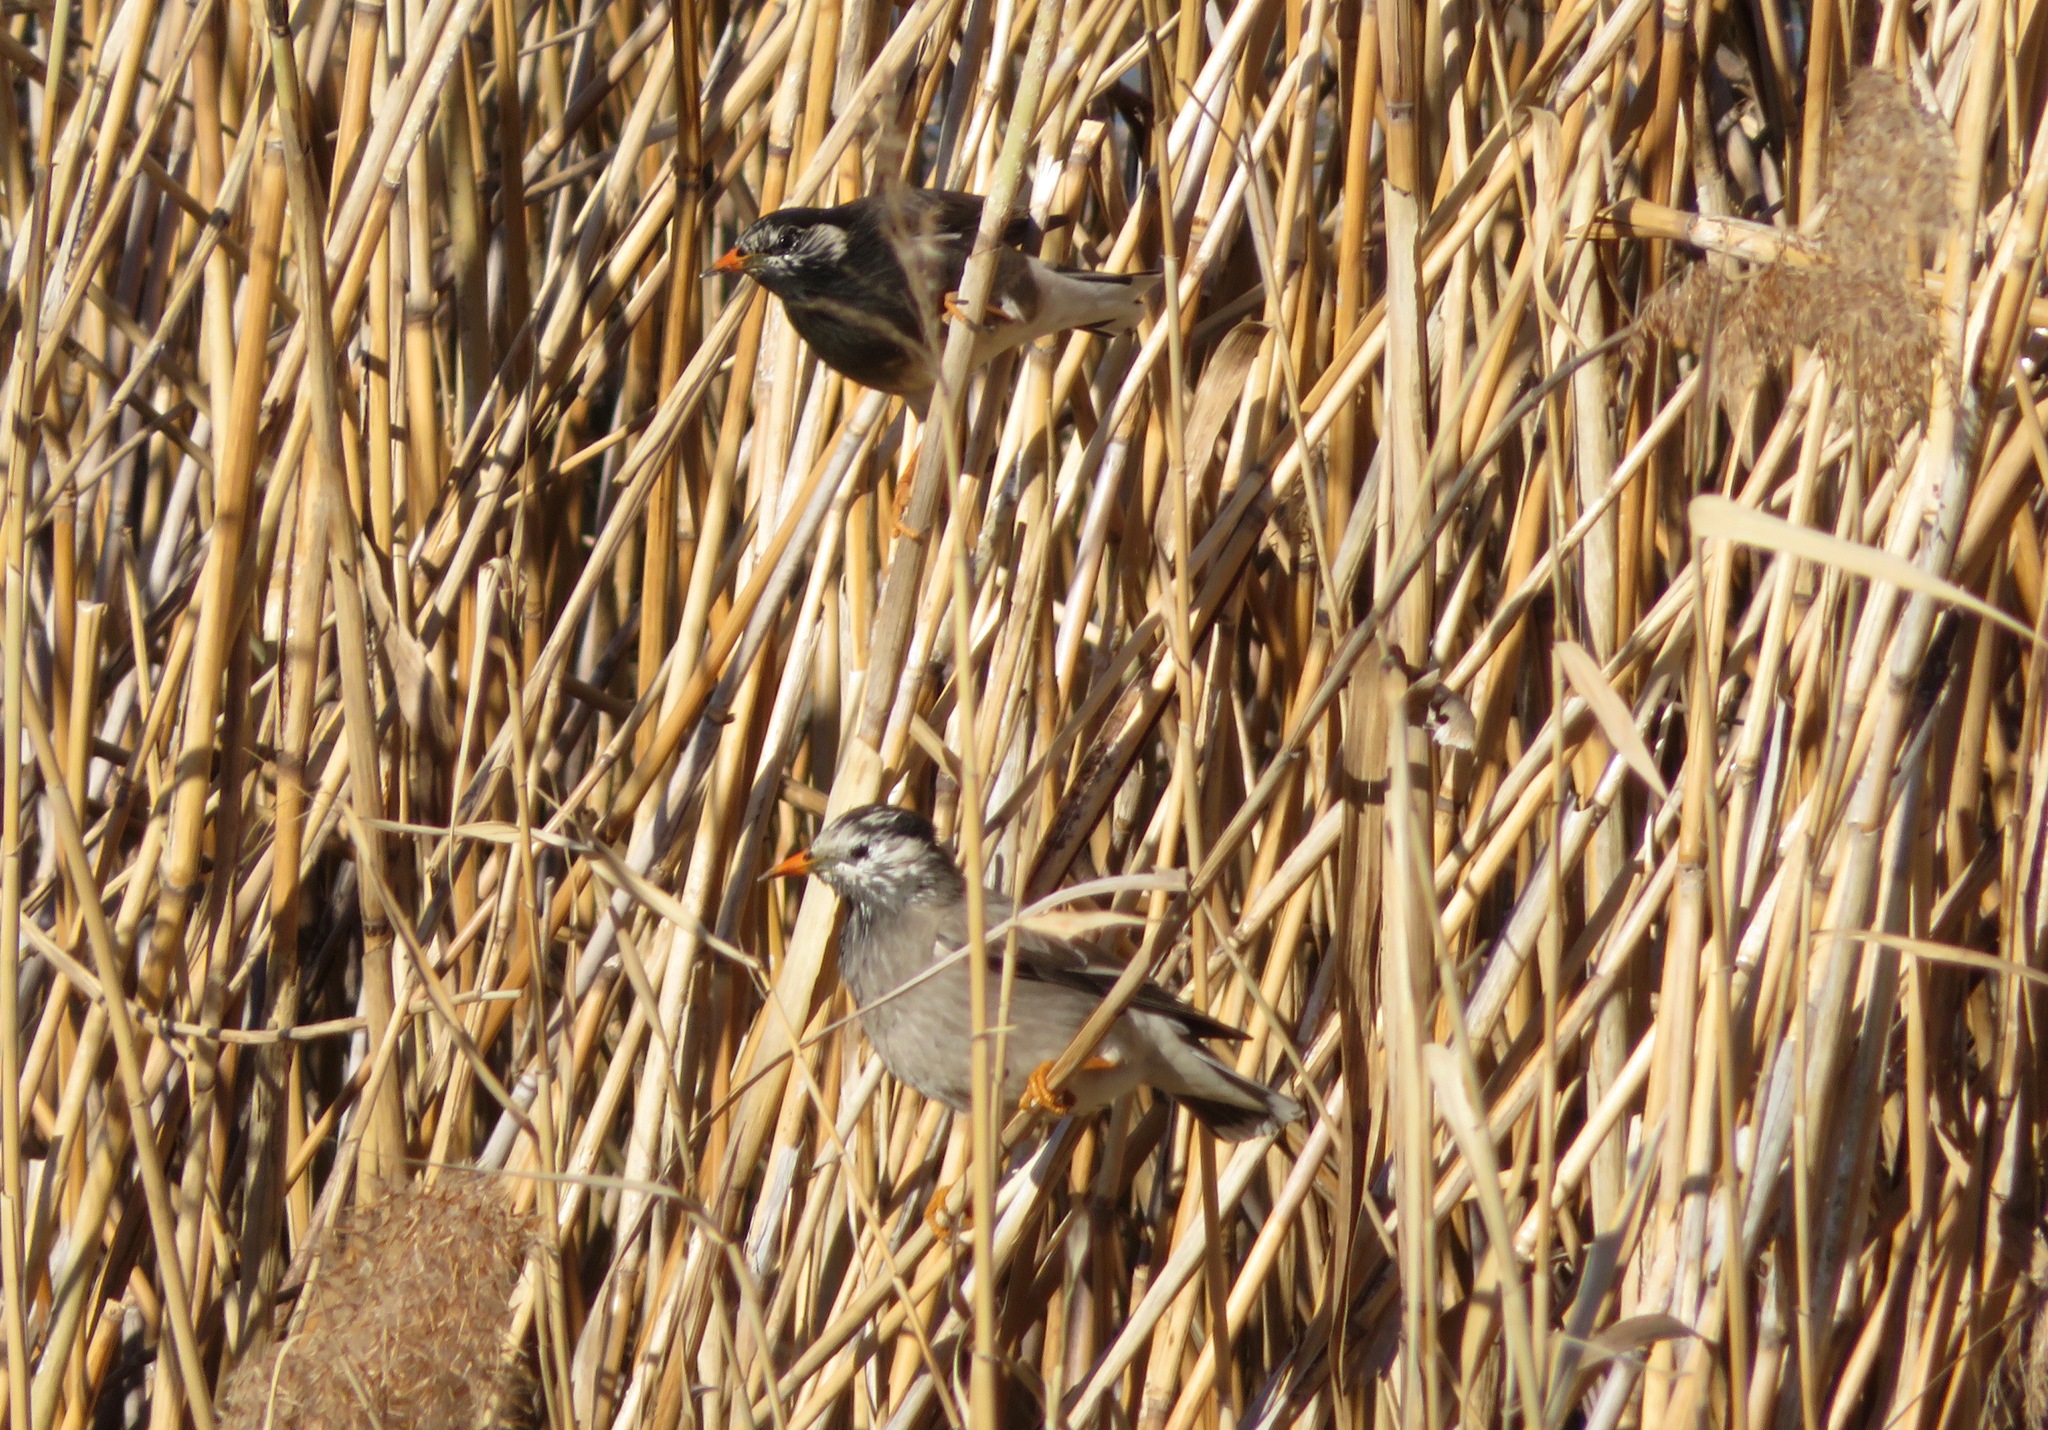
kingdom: Animalia
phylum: Chordata
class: Aves
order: Passeriformes
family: Sturnidae
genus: Spodiopsar
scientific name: Spodiopsar cineraceus
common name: White-cheeked starling
